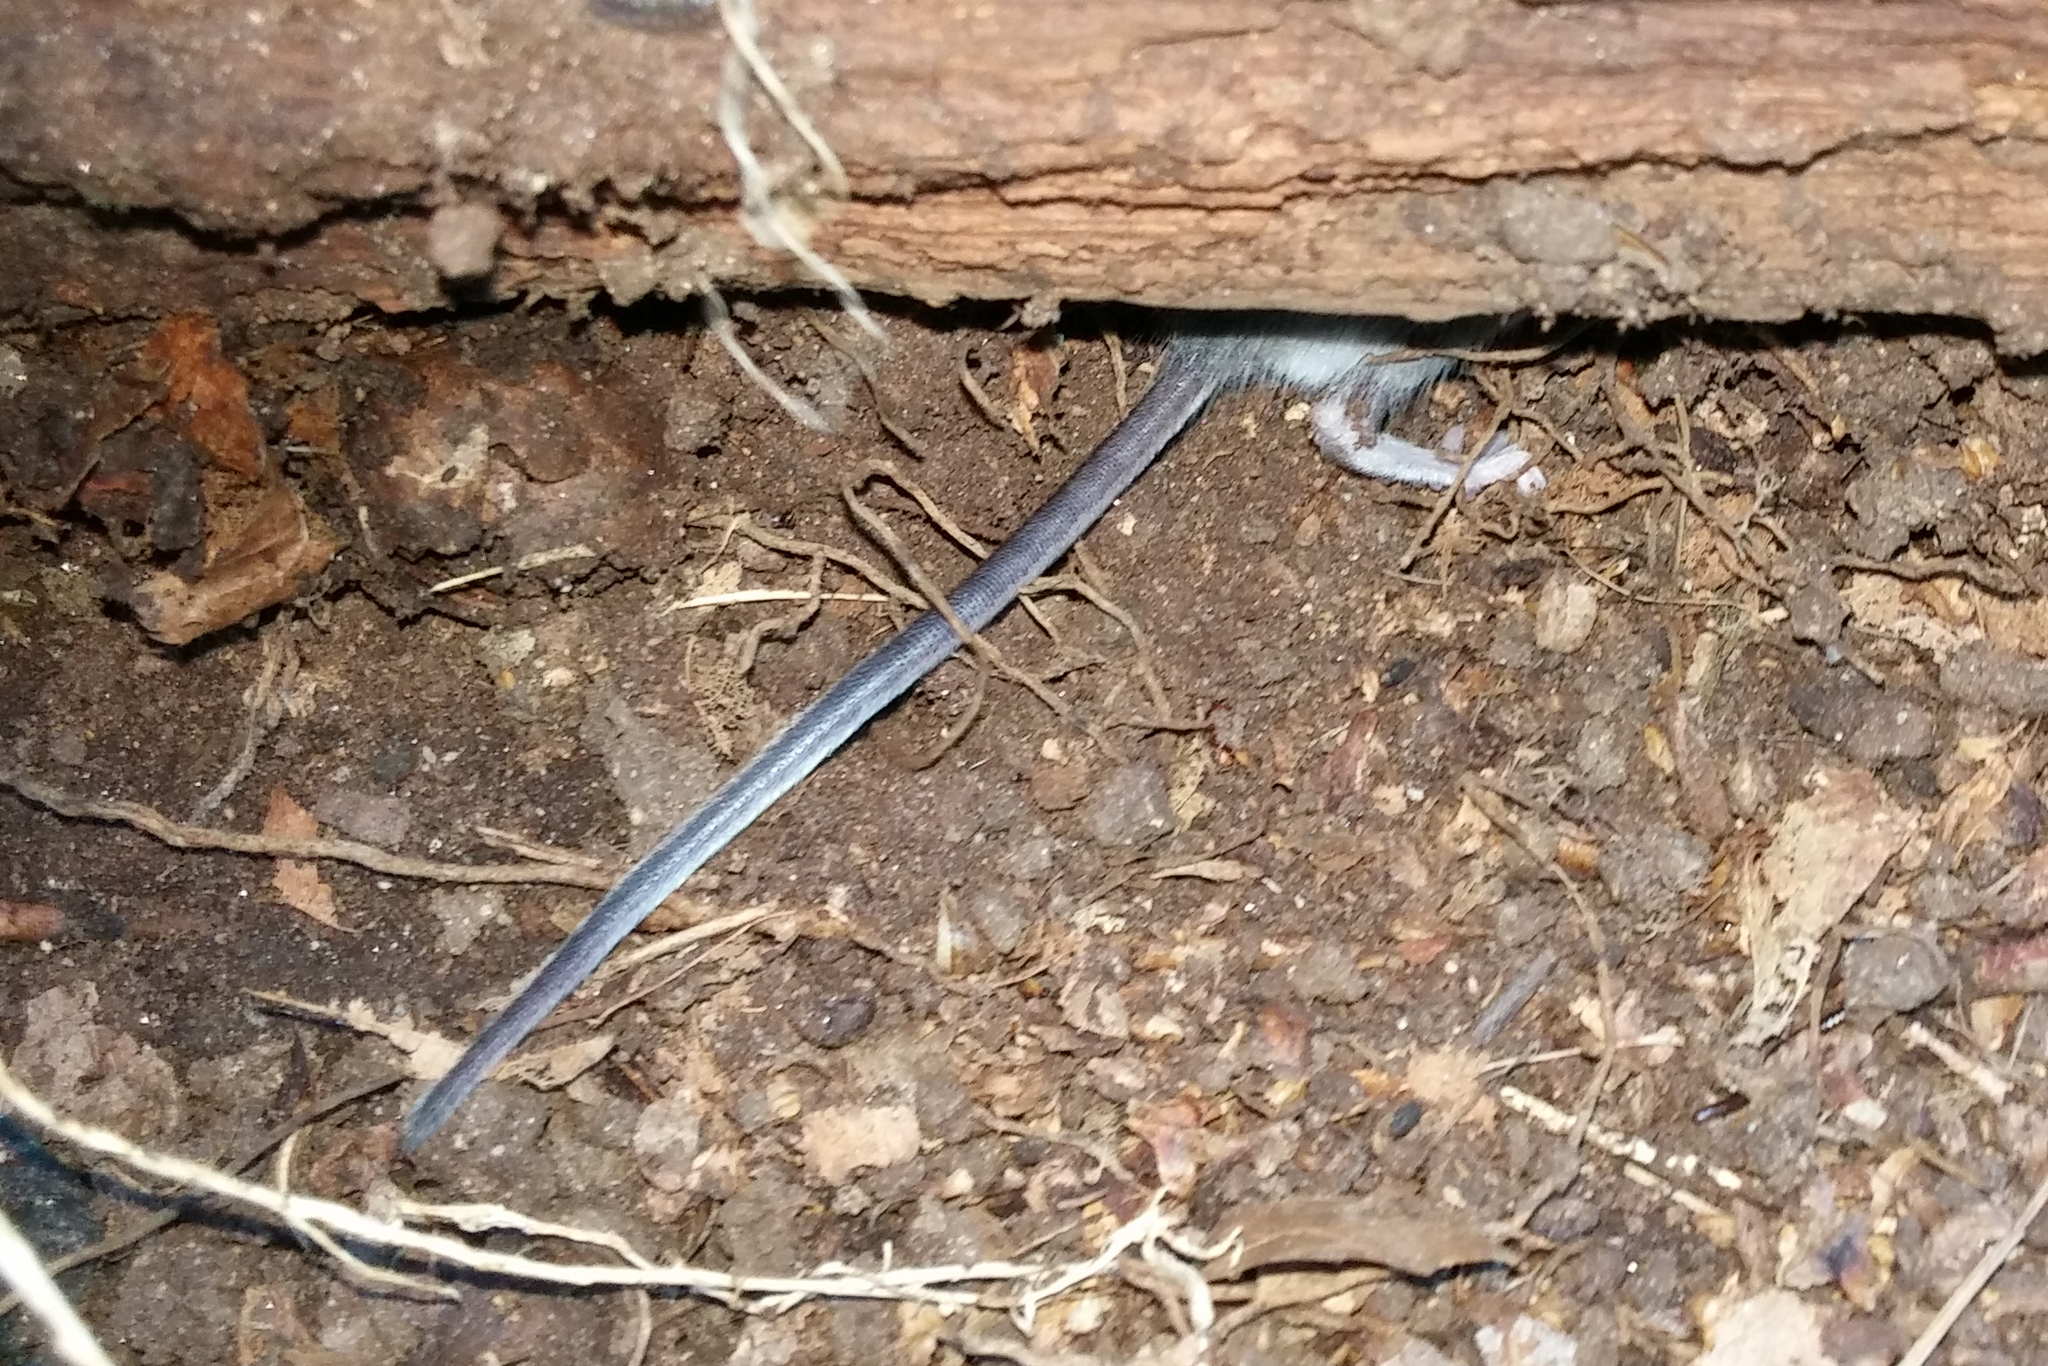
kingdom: Animalia
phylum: Chordata
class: Mammalia
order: Rodentia
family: Cricetidae
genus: Peromyscus
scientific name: Peromyscus leucopus
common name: White-footed deermouse
